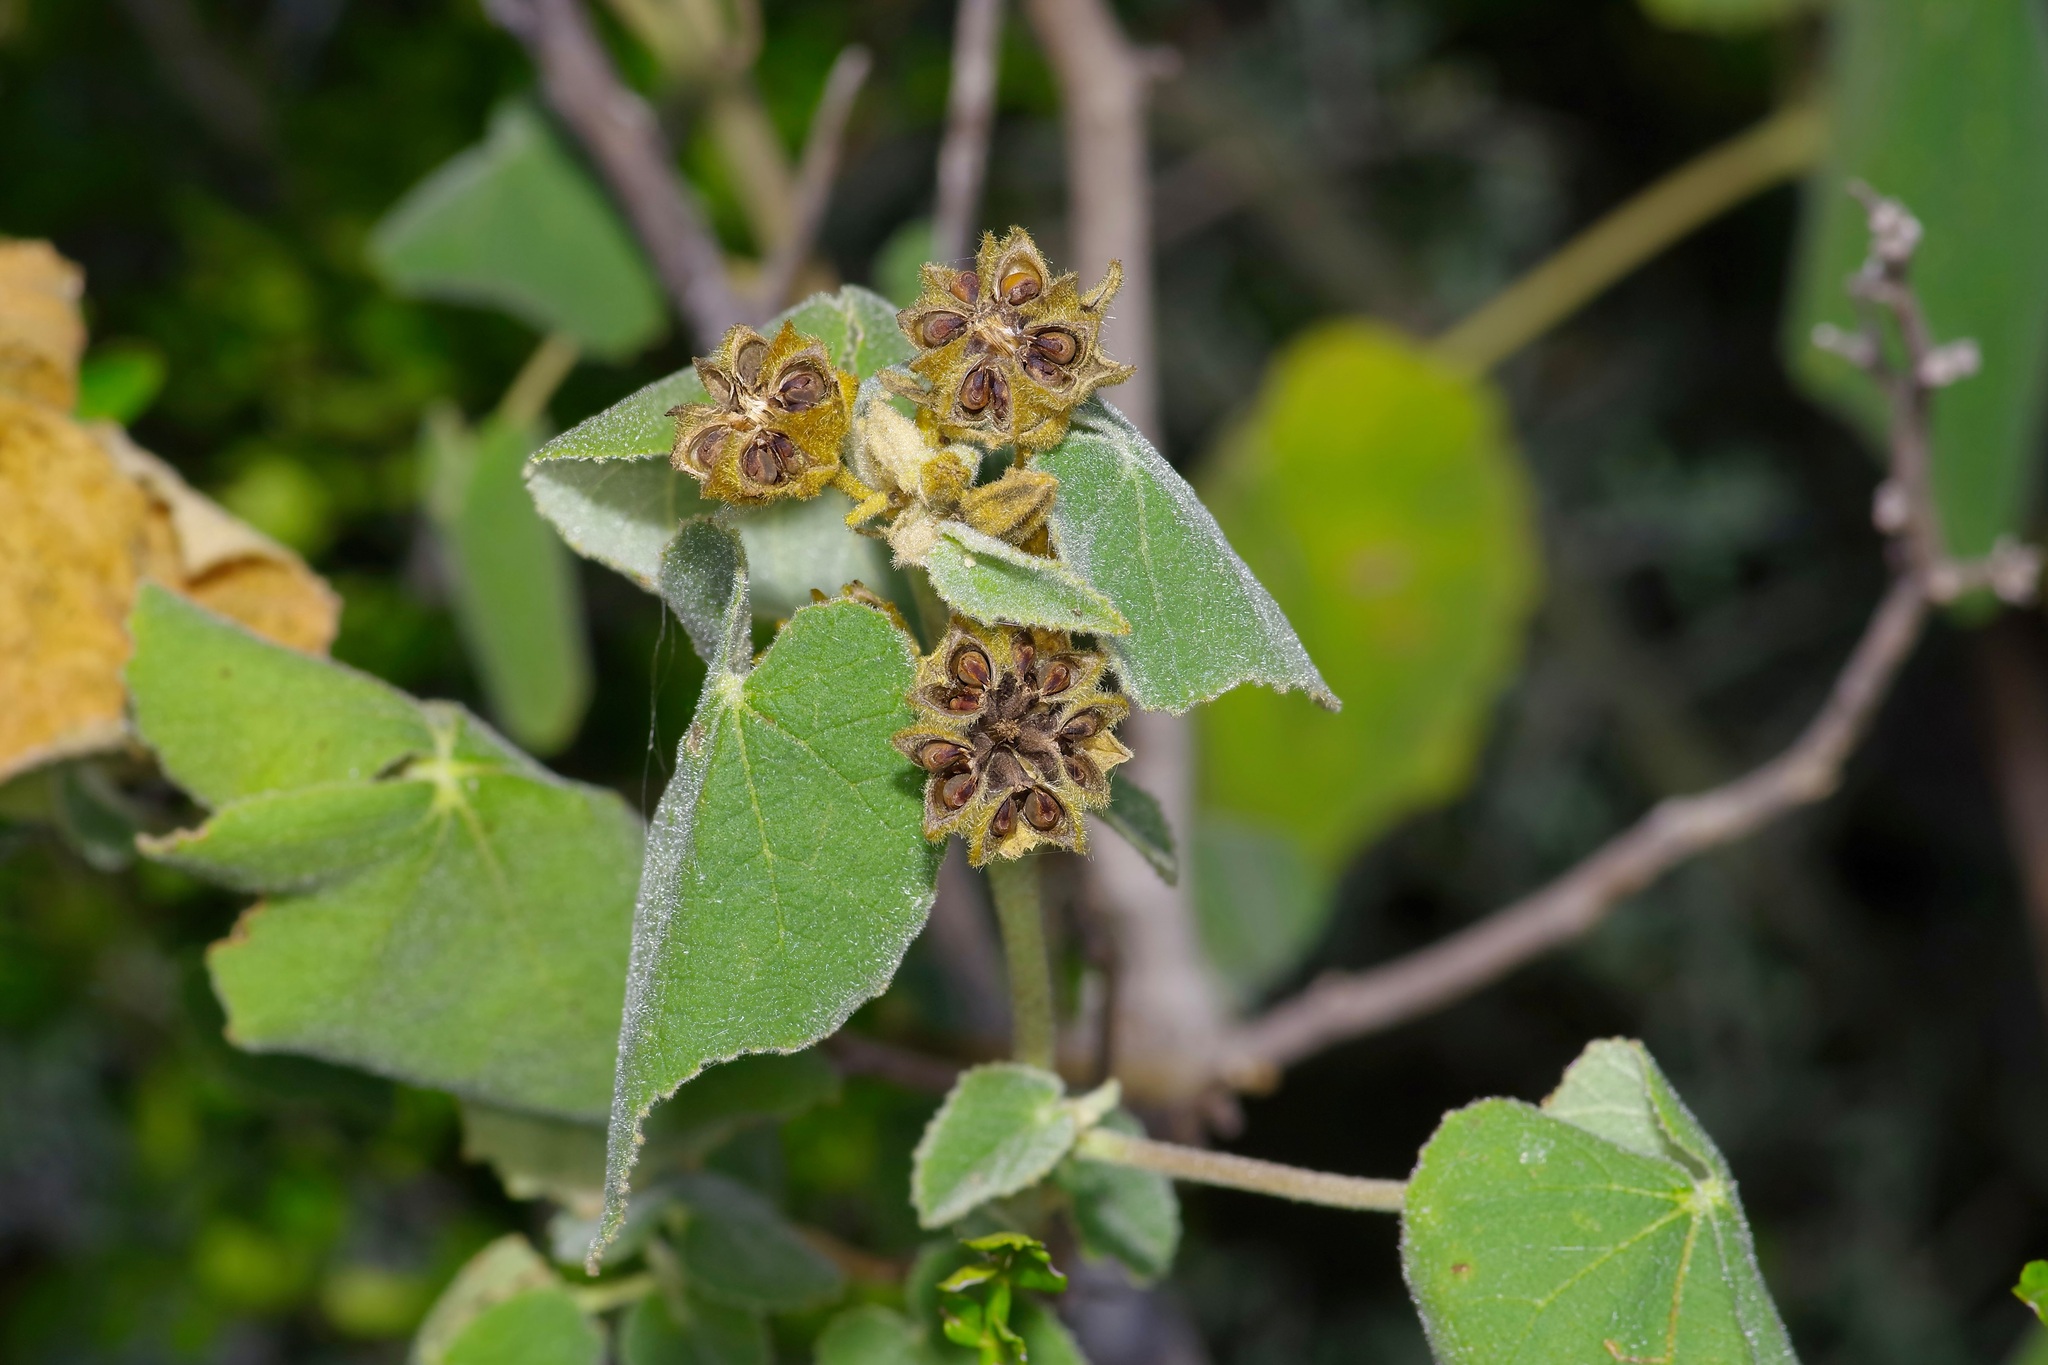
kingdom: Plantae
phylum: Tracheophyta
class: Magnoliopsida
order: Malvales
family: Malvaceae
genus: Allowissadula
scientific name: Allowissadula lozanoi
